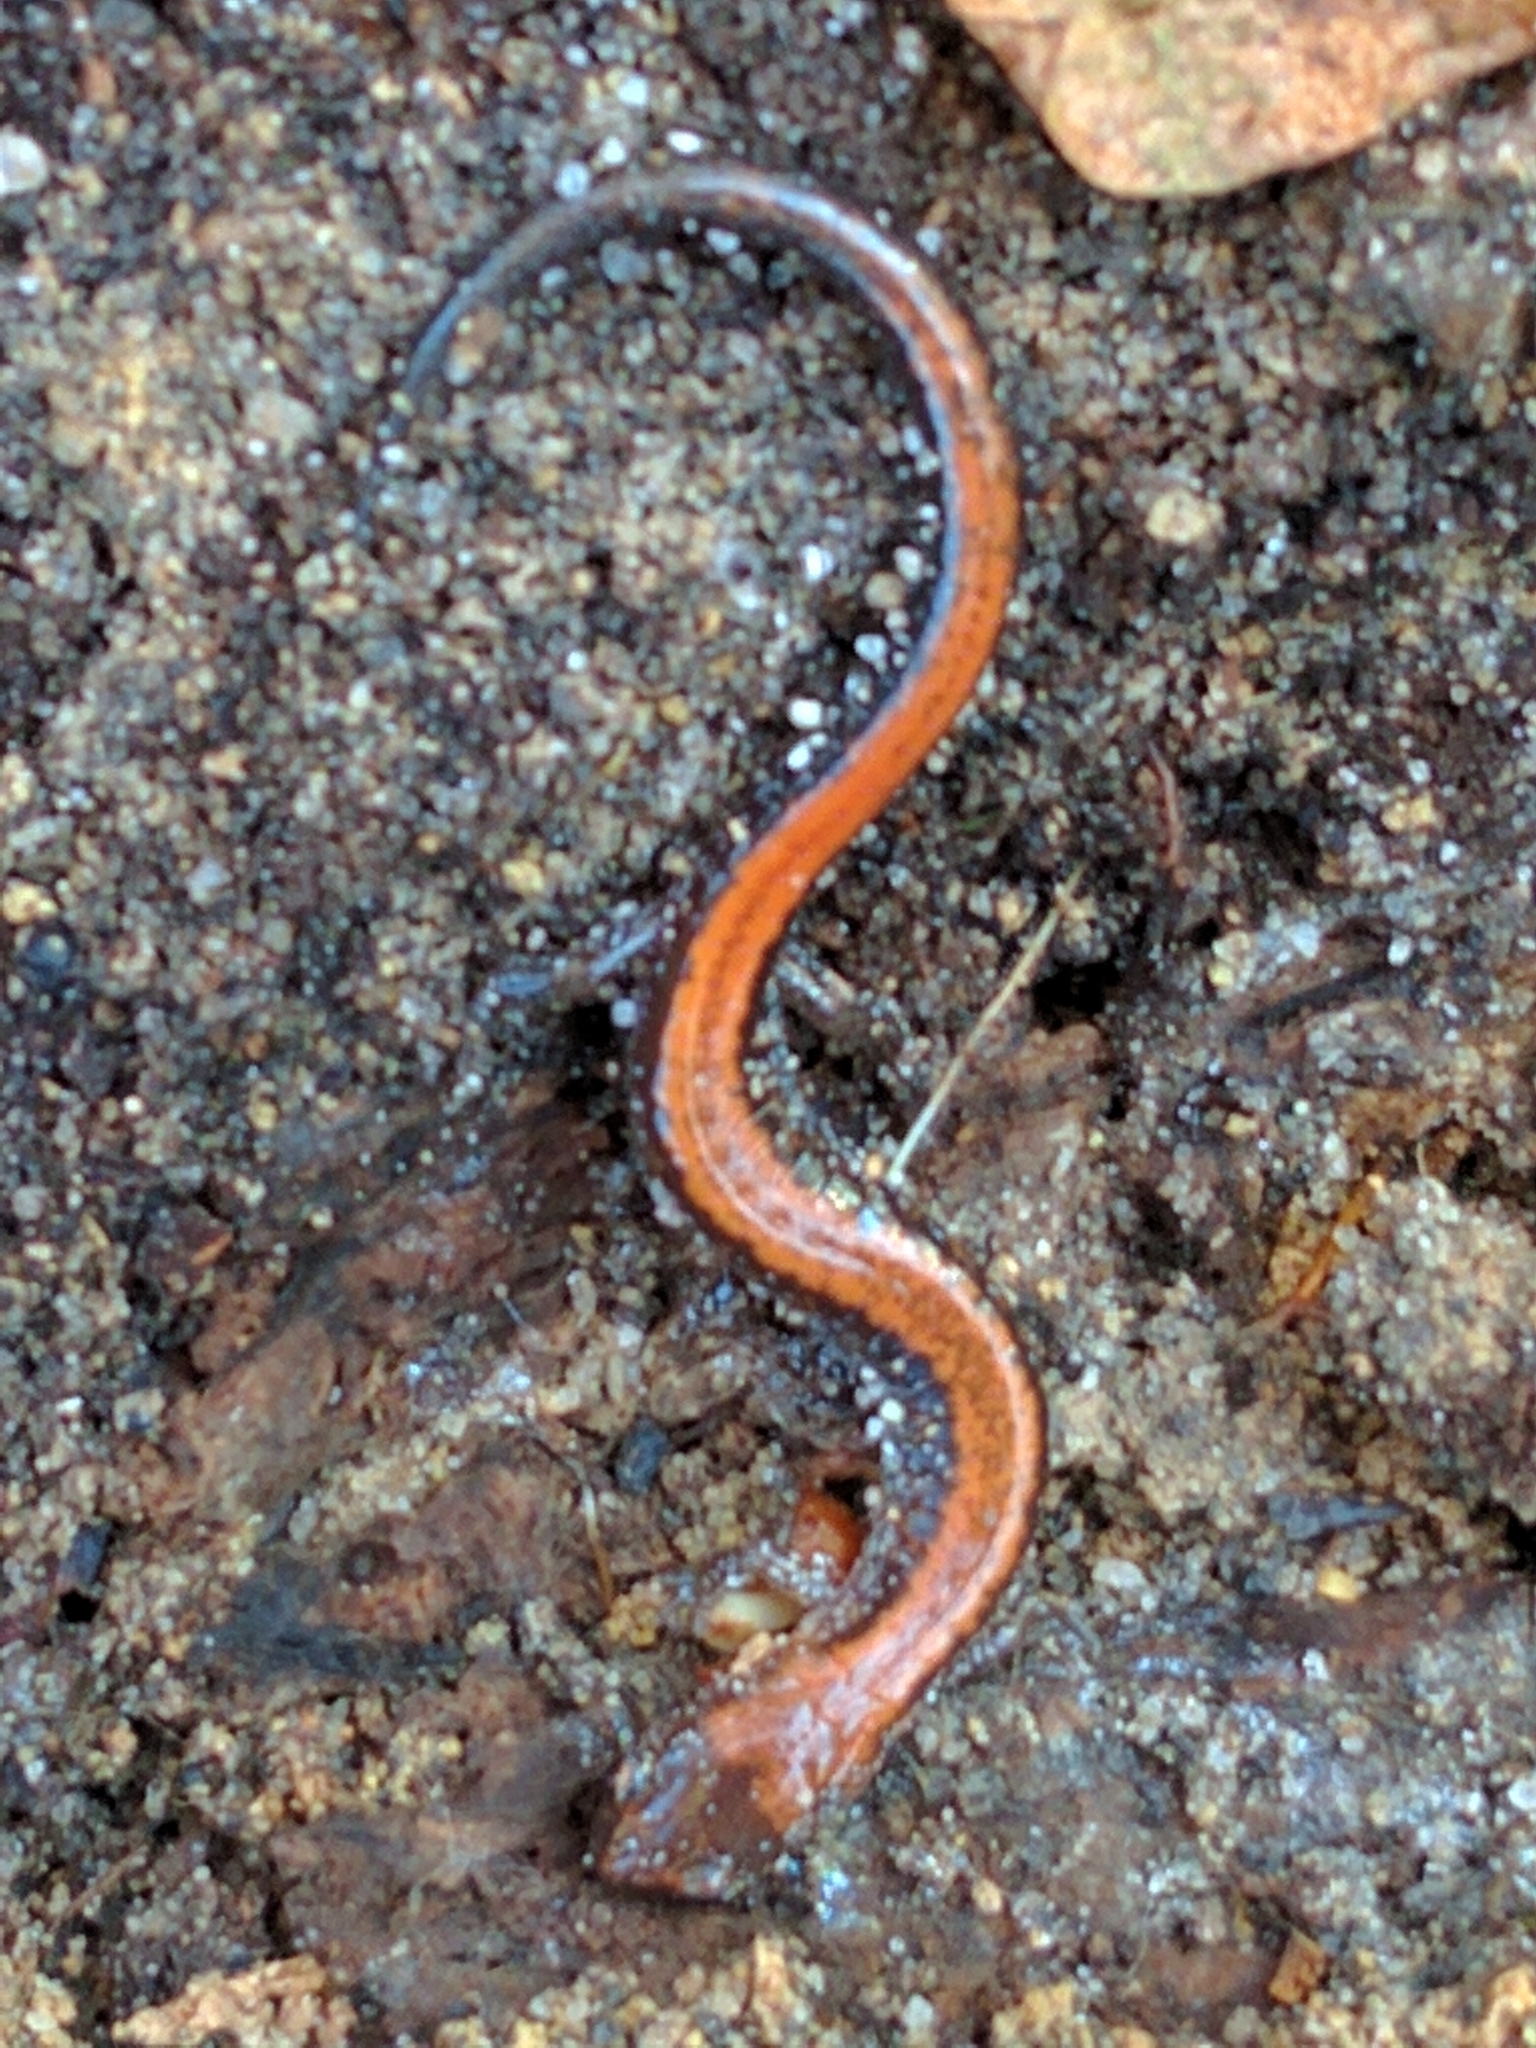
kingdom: Animalia
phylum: Chordata
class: Amphibia
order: Caudata
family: Plethodontidae
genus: Plethodon
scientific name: Plethodon cinereus
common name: Redback salamander
